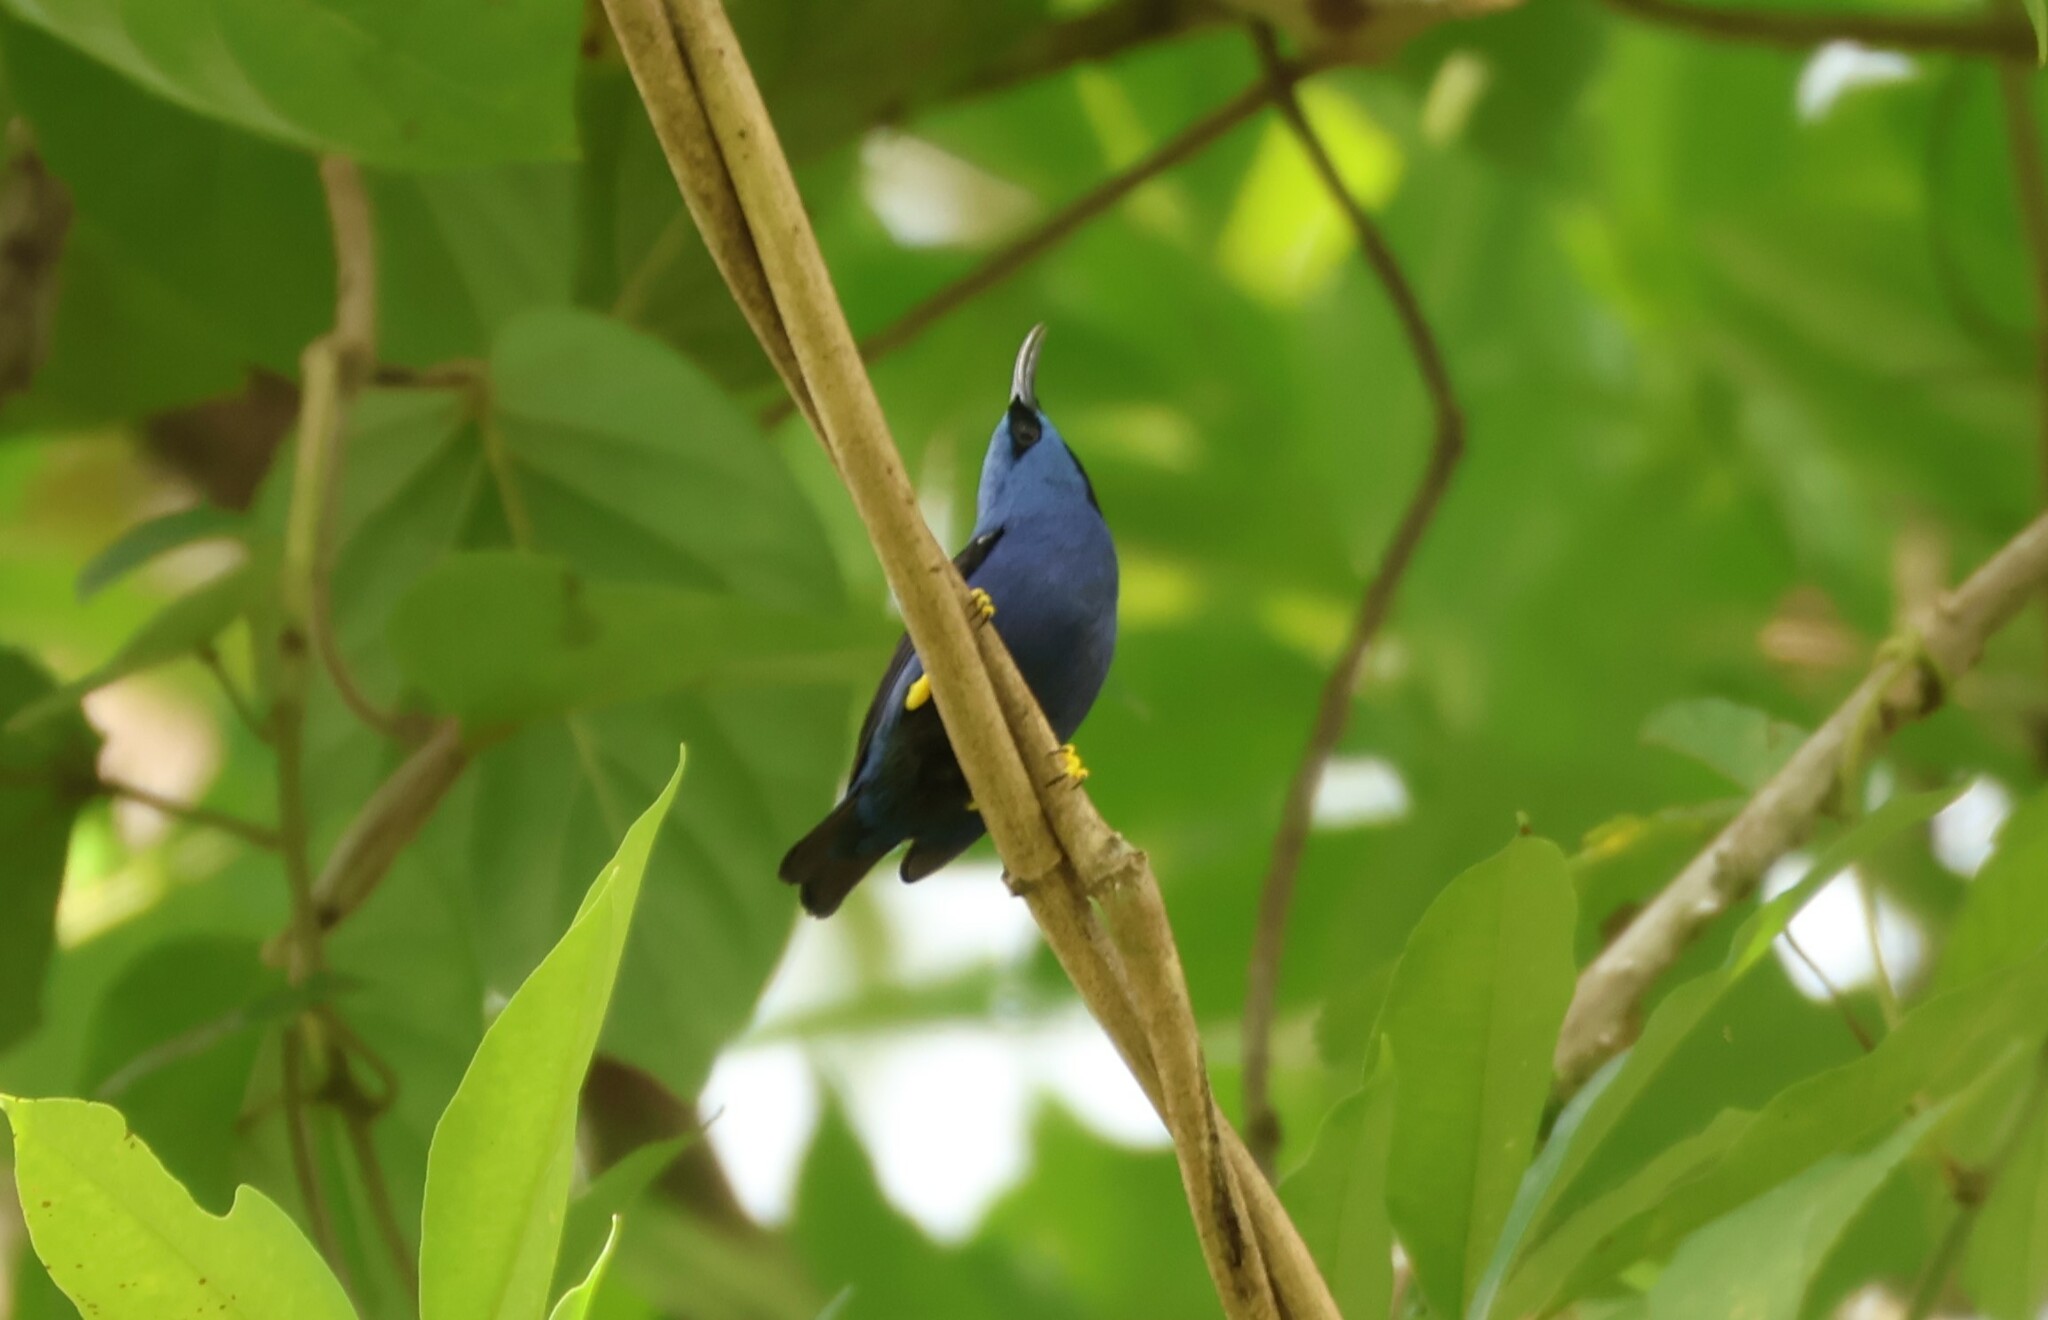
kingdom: Animalia
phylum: Chordata
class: Aves
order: Passeriformes
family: Thraupidae
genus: Cyanerpes
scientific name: Cyanerpes lucidus
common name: Shining honeycreeper
